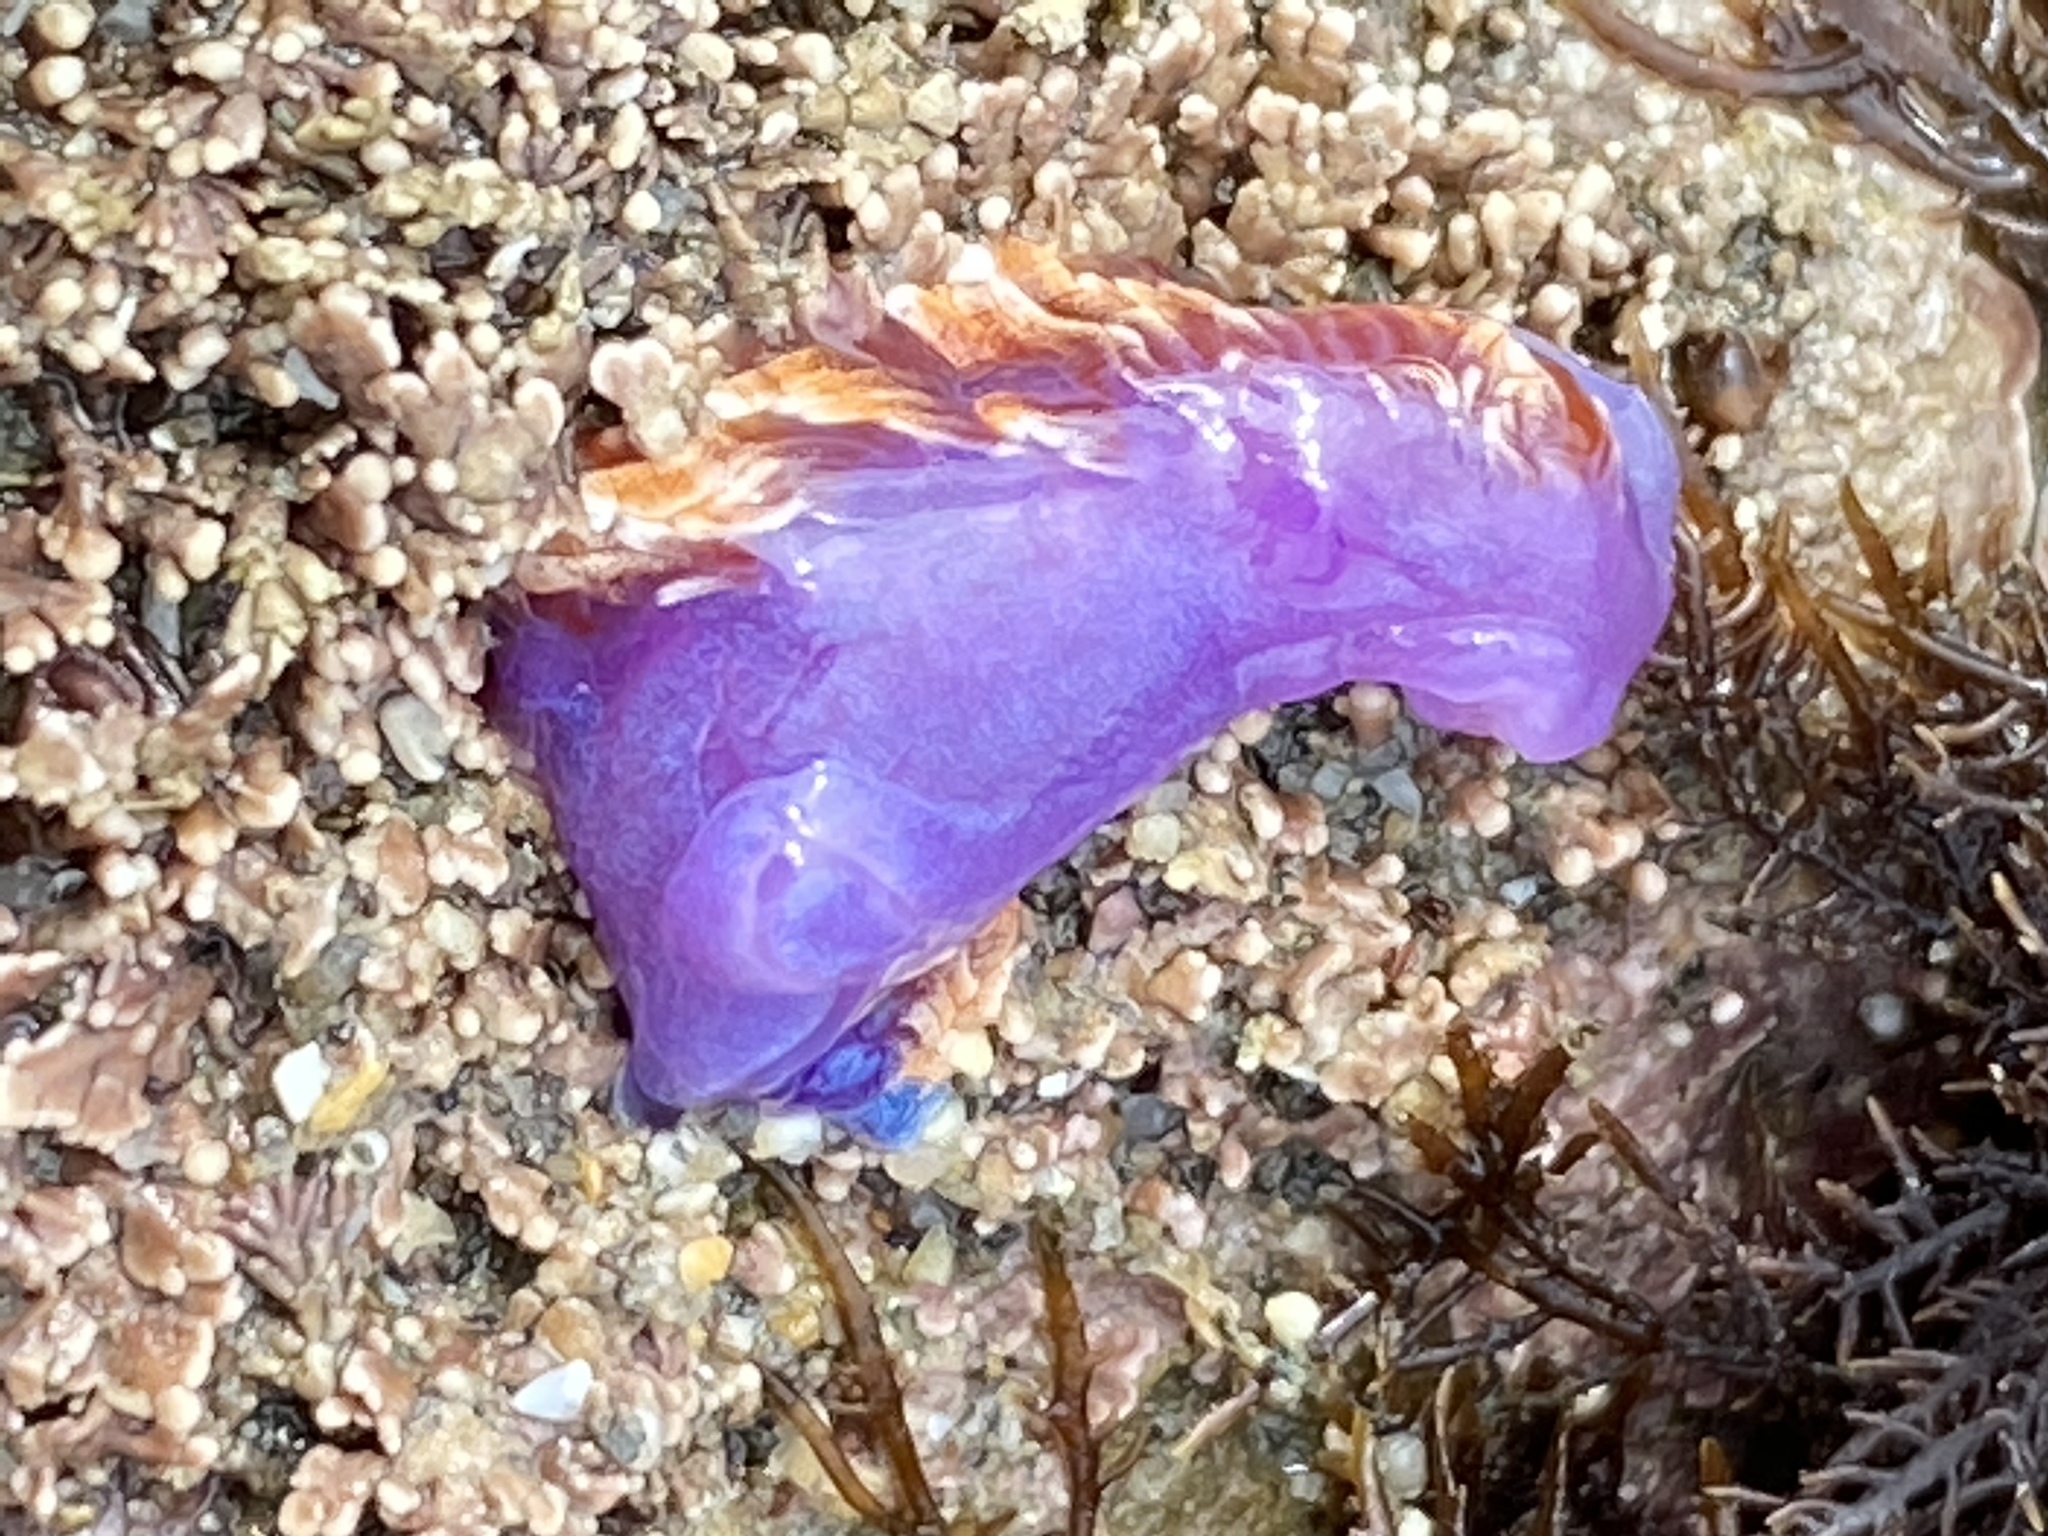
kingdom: Animalia
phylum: Mollusca
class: Gastropoda
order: Nudibranchia
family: Flabellinopsidae
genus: Flabellinopsis
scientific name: Flabellinopsis iodinea
